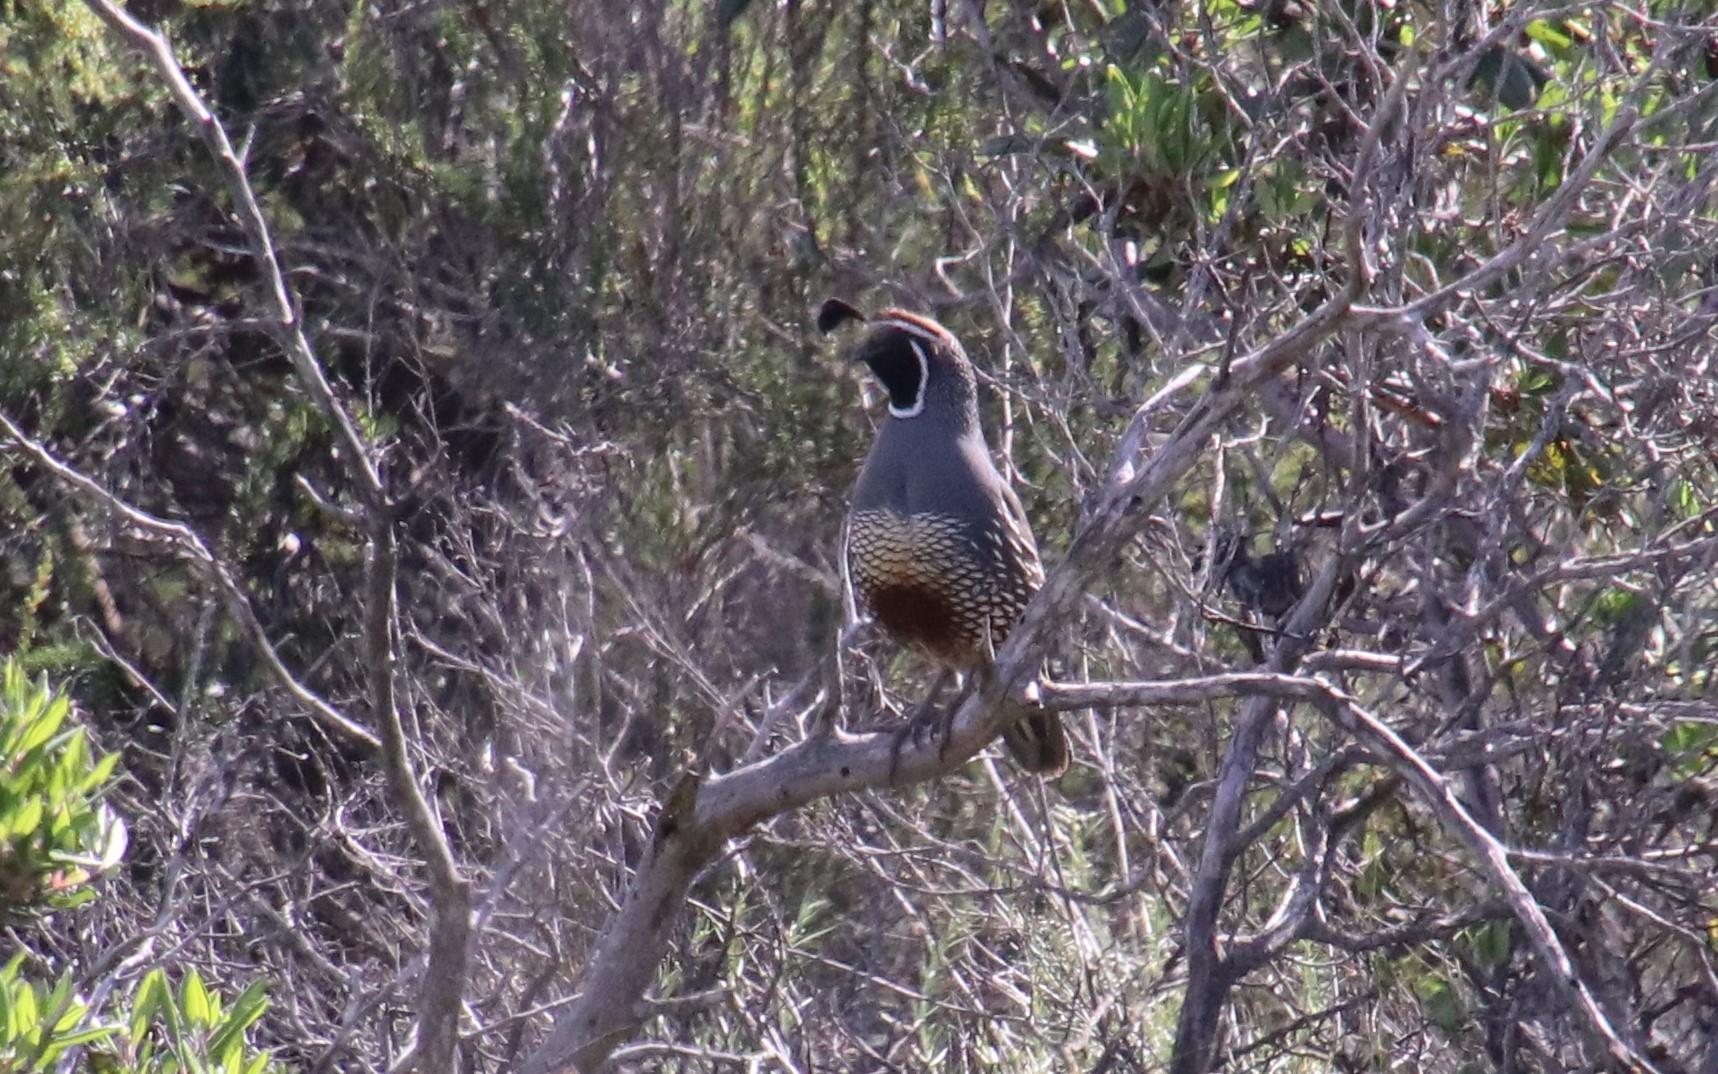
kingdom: Animalia
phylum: Chordata
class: Aves
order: Galliformes
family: Odontophoridae
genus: Callipepla
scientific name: Callipepla californica
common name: California quail
